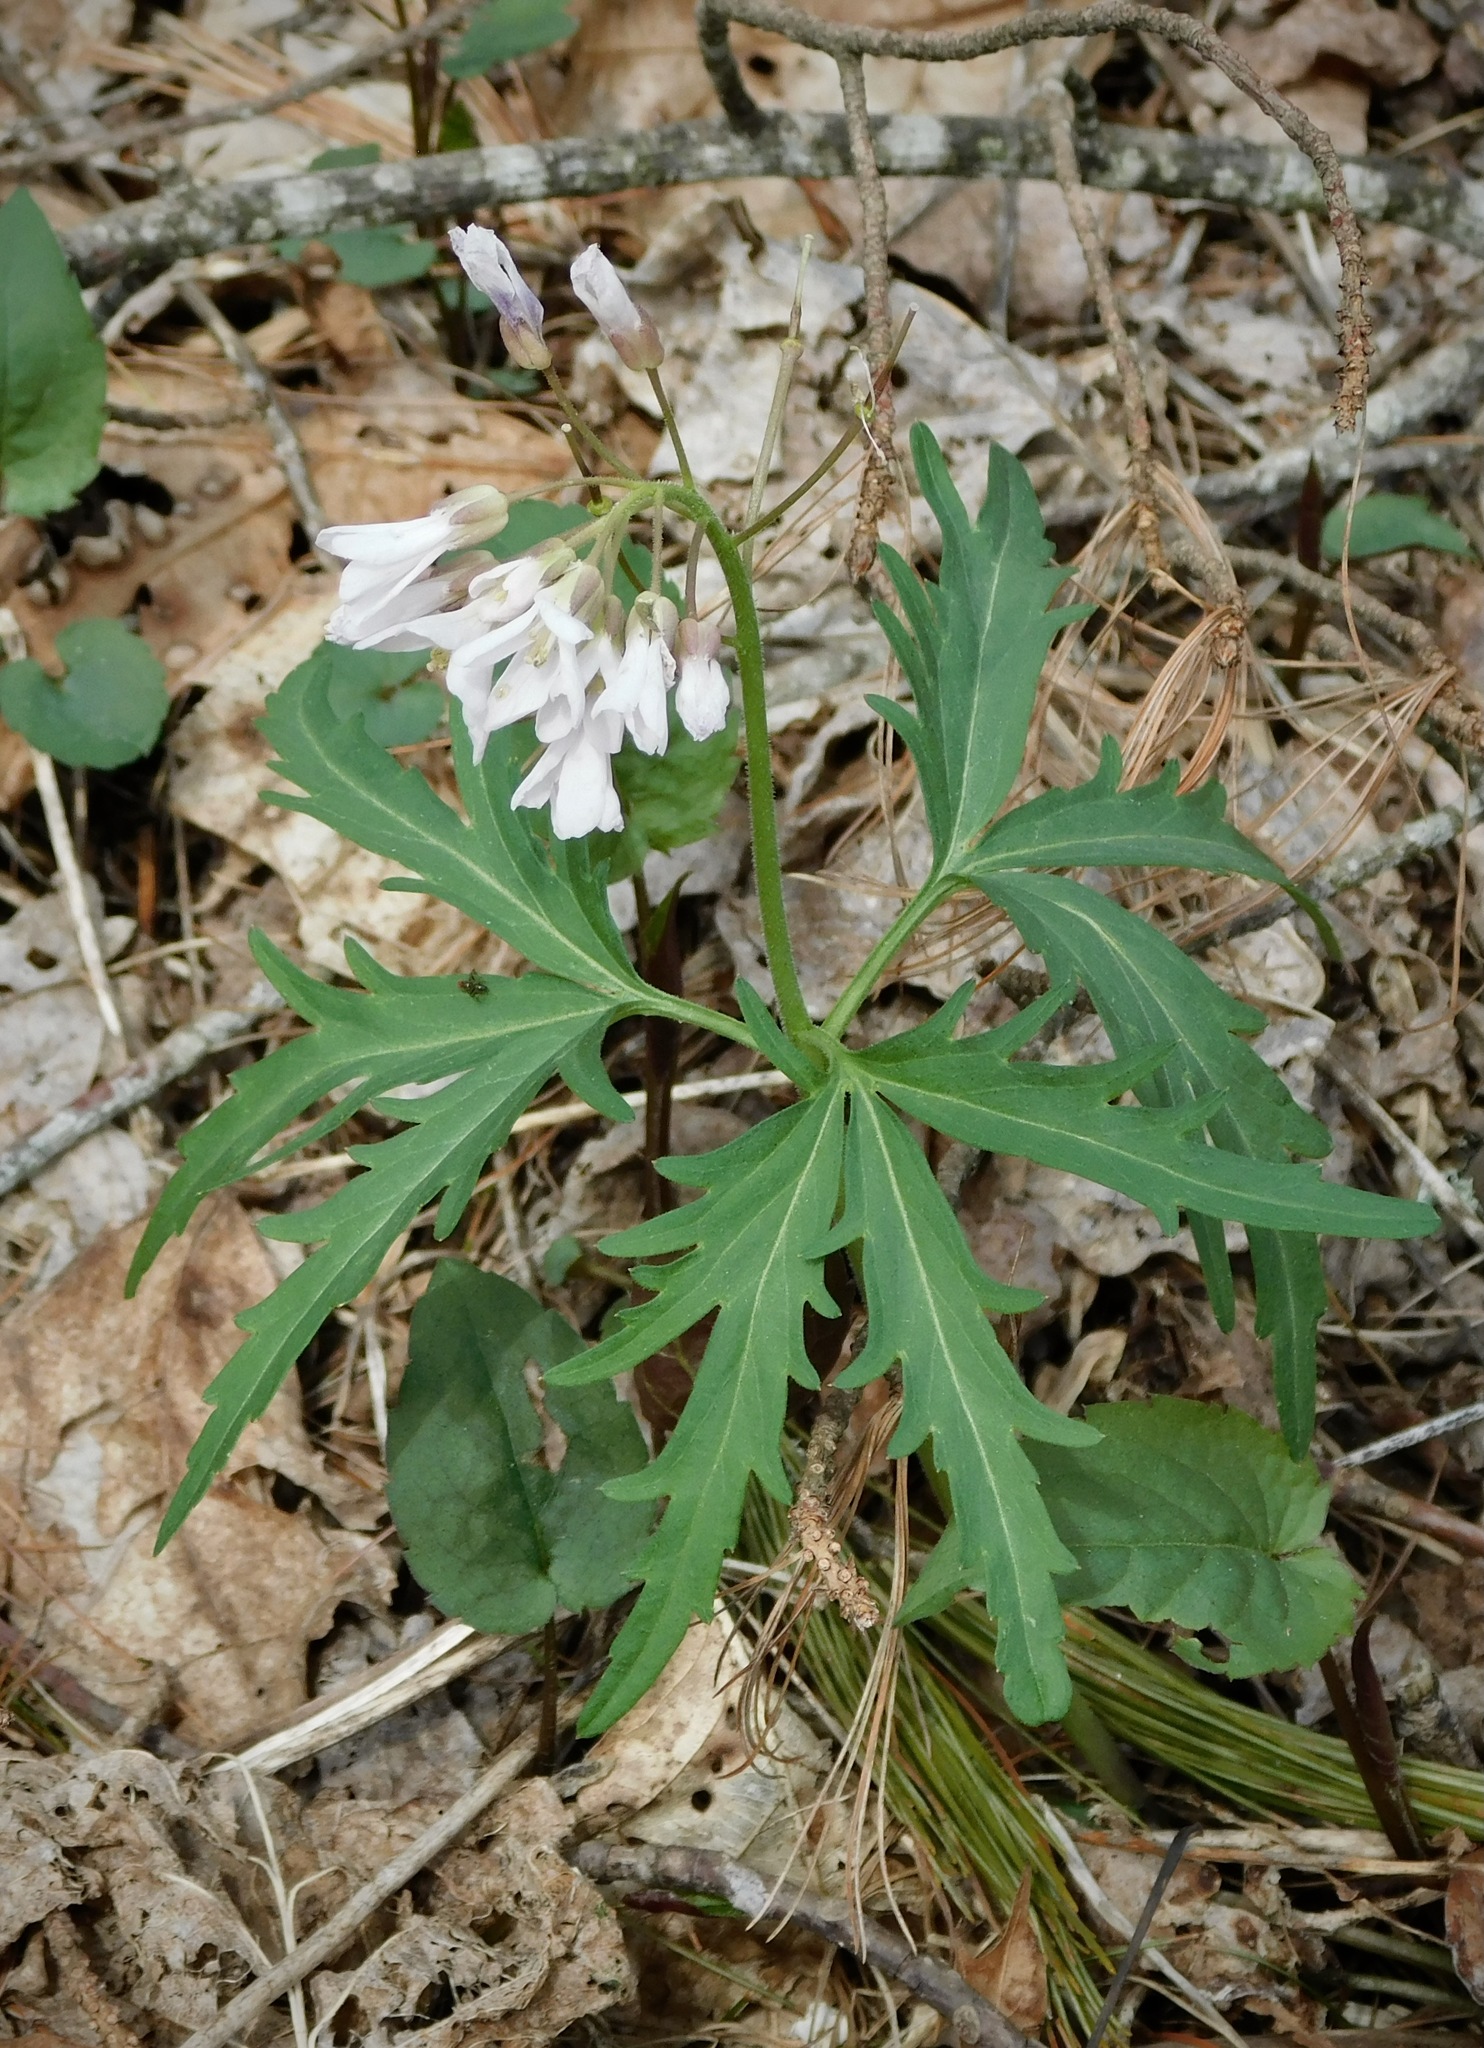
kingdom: Plantae
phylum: Tracheophyta
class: Magnoliopsida
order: Brassicales
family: Brassicaceae
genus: Cardamine
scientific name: Cardamine concatenata
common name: Cut-leaf toothcup
